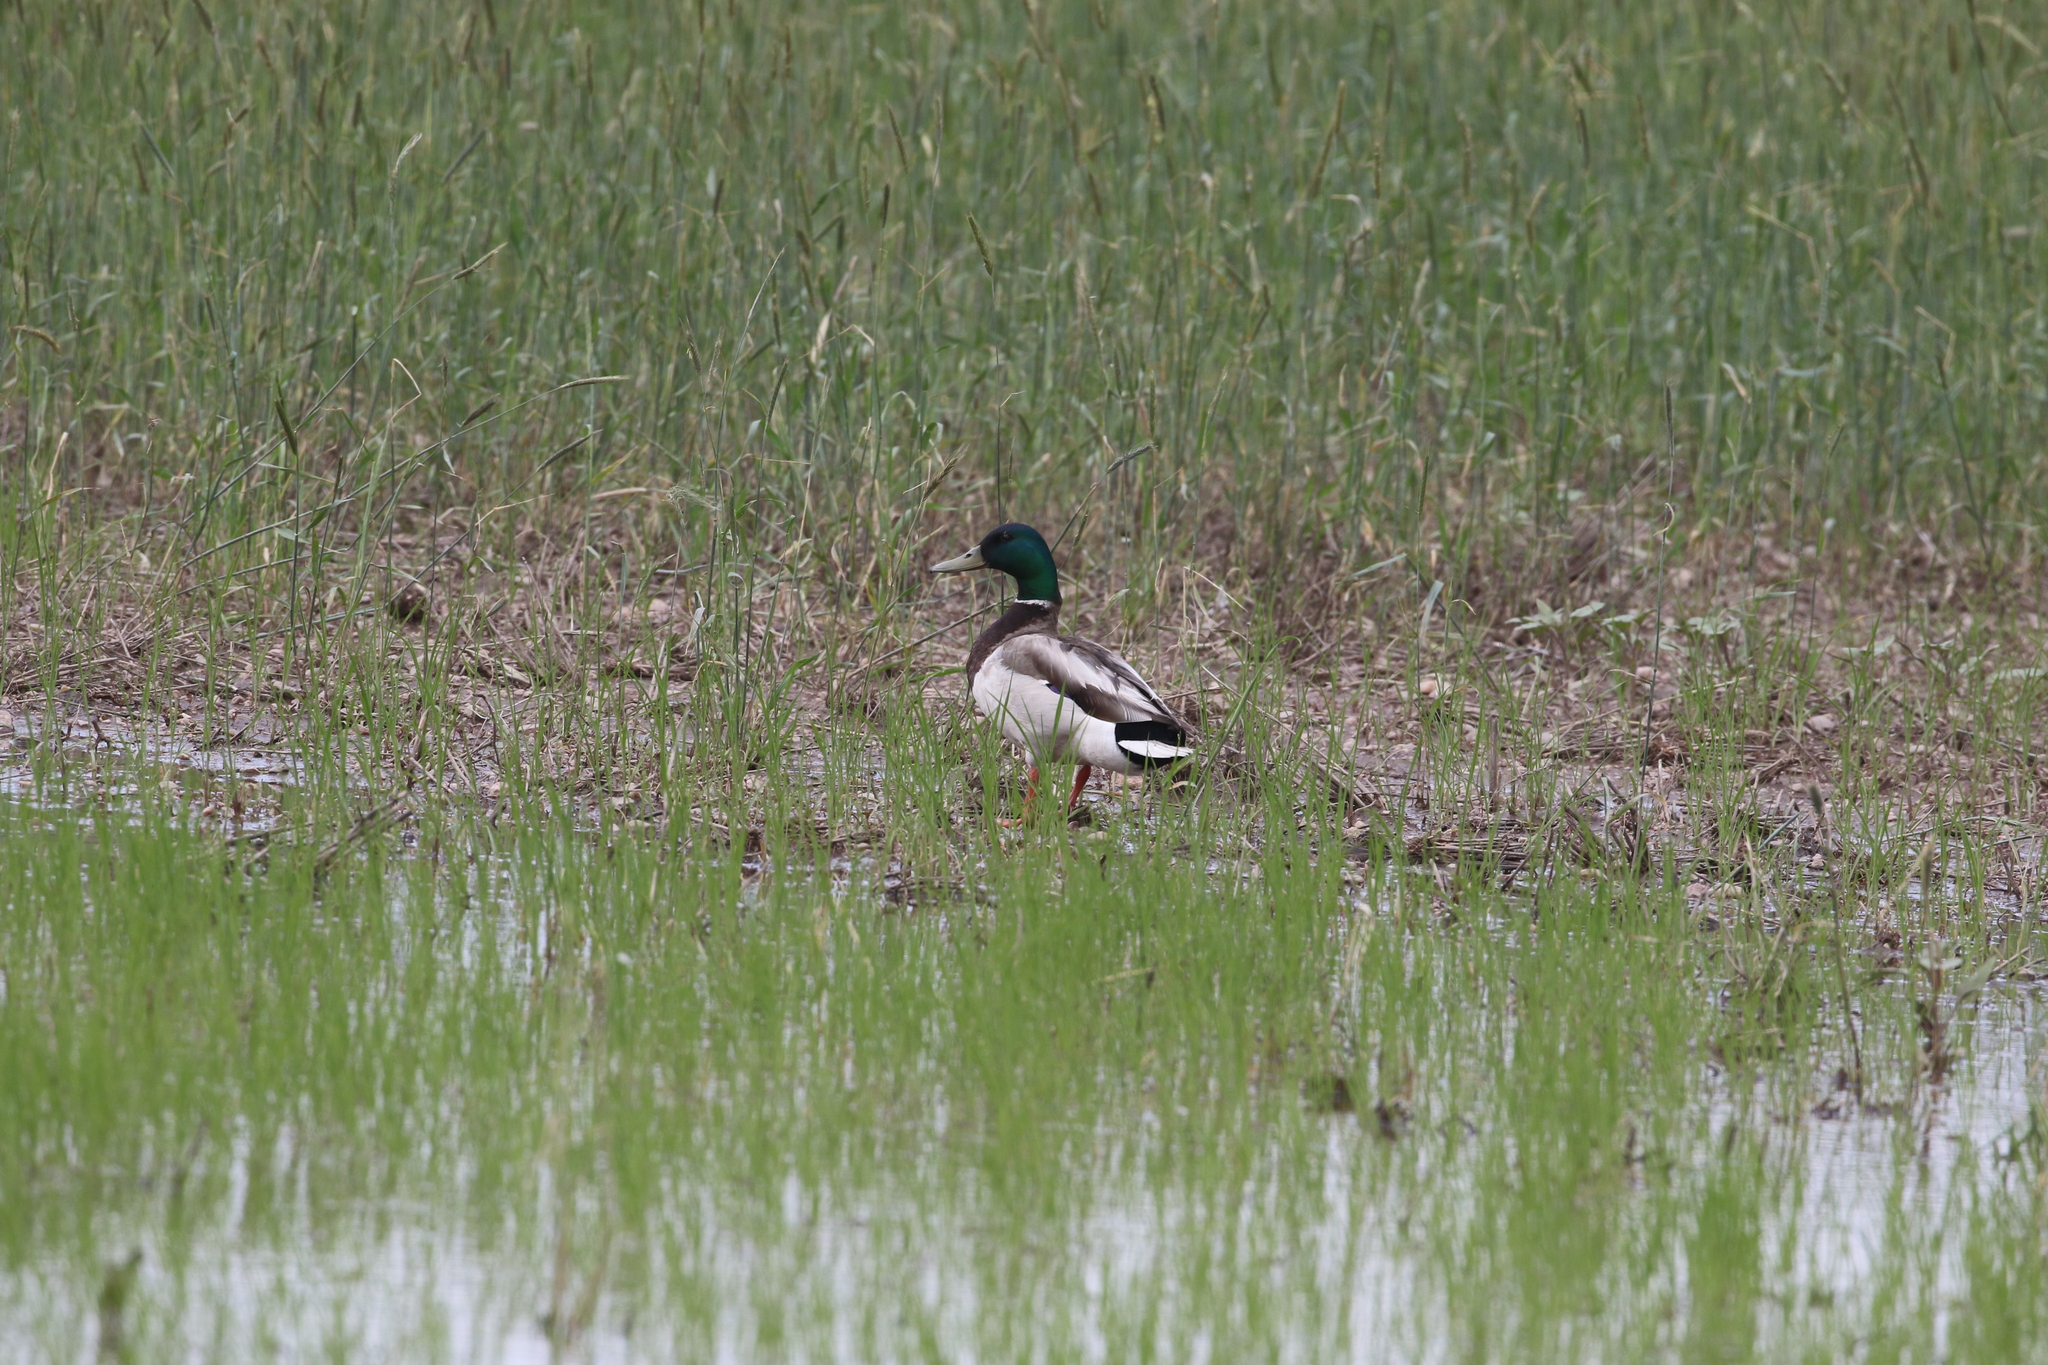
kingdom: Animalia
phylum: Chordata
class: Aves
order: Anseriformes
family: Anatidae
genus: Anas
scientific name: Anas platyrhynchos
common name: Mallard
